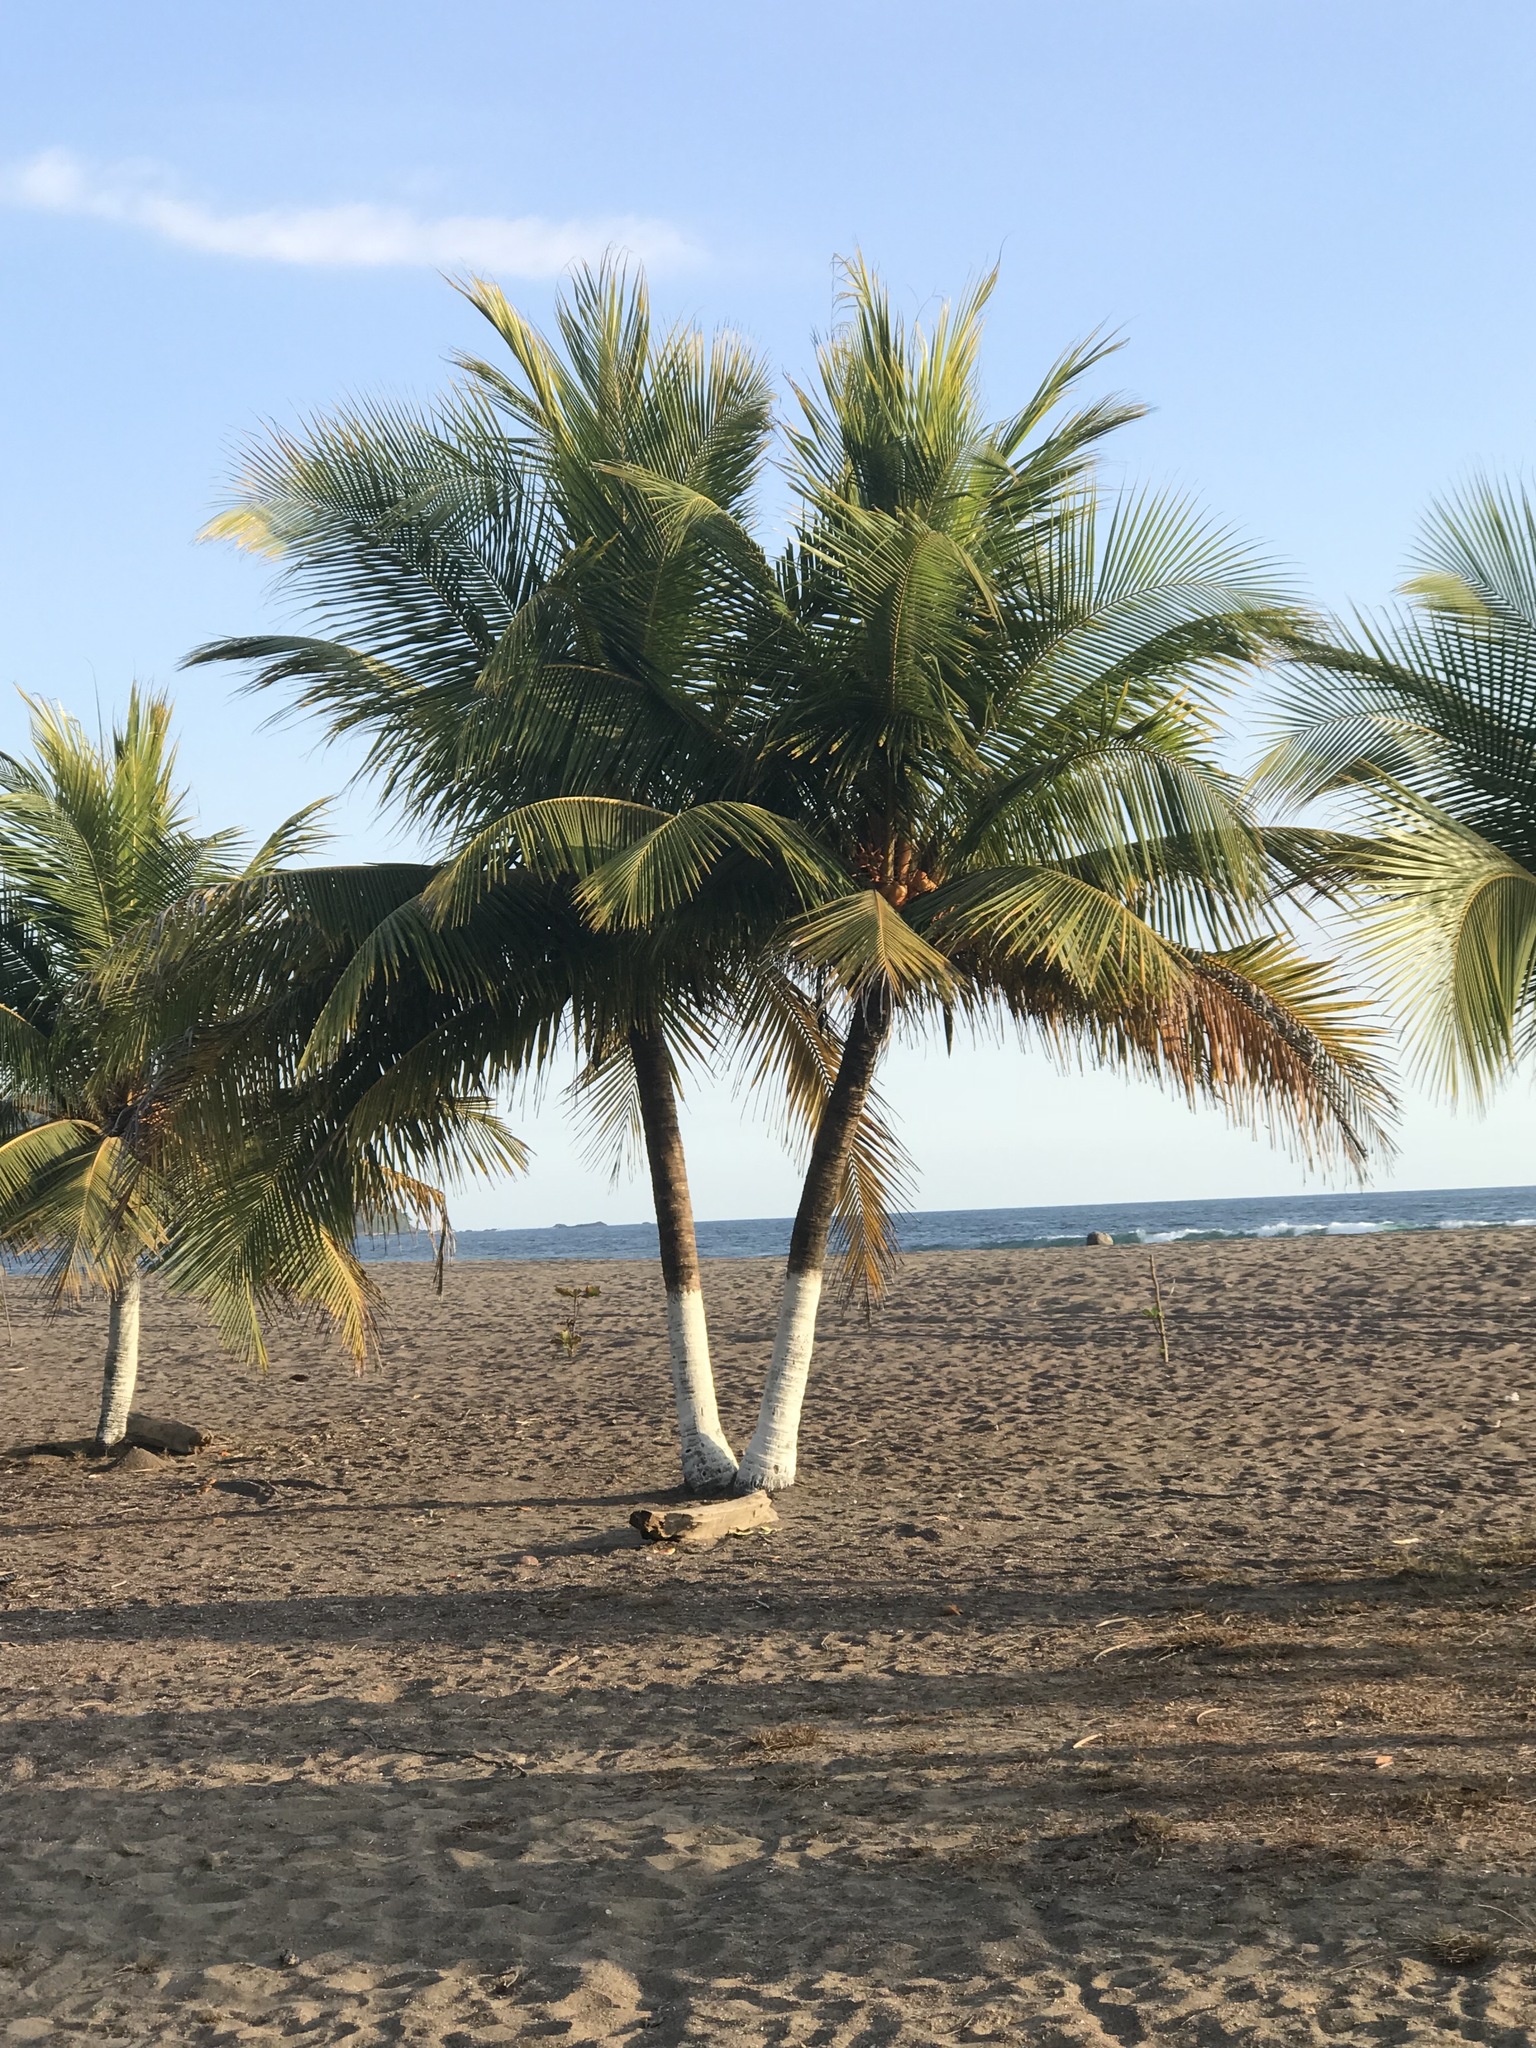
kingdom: Plantae
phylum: Tracheophyta
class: Liliopsida
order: Arecales
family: Arecaceae
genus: Cocos
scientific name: Cocos nucifera
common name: Coconut palm
